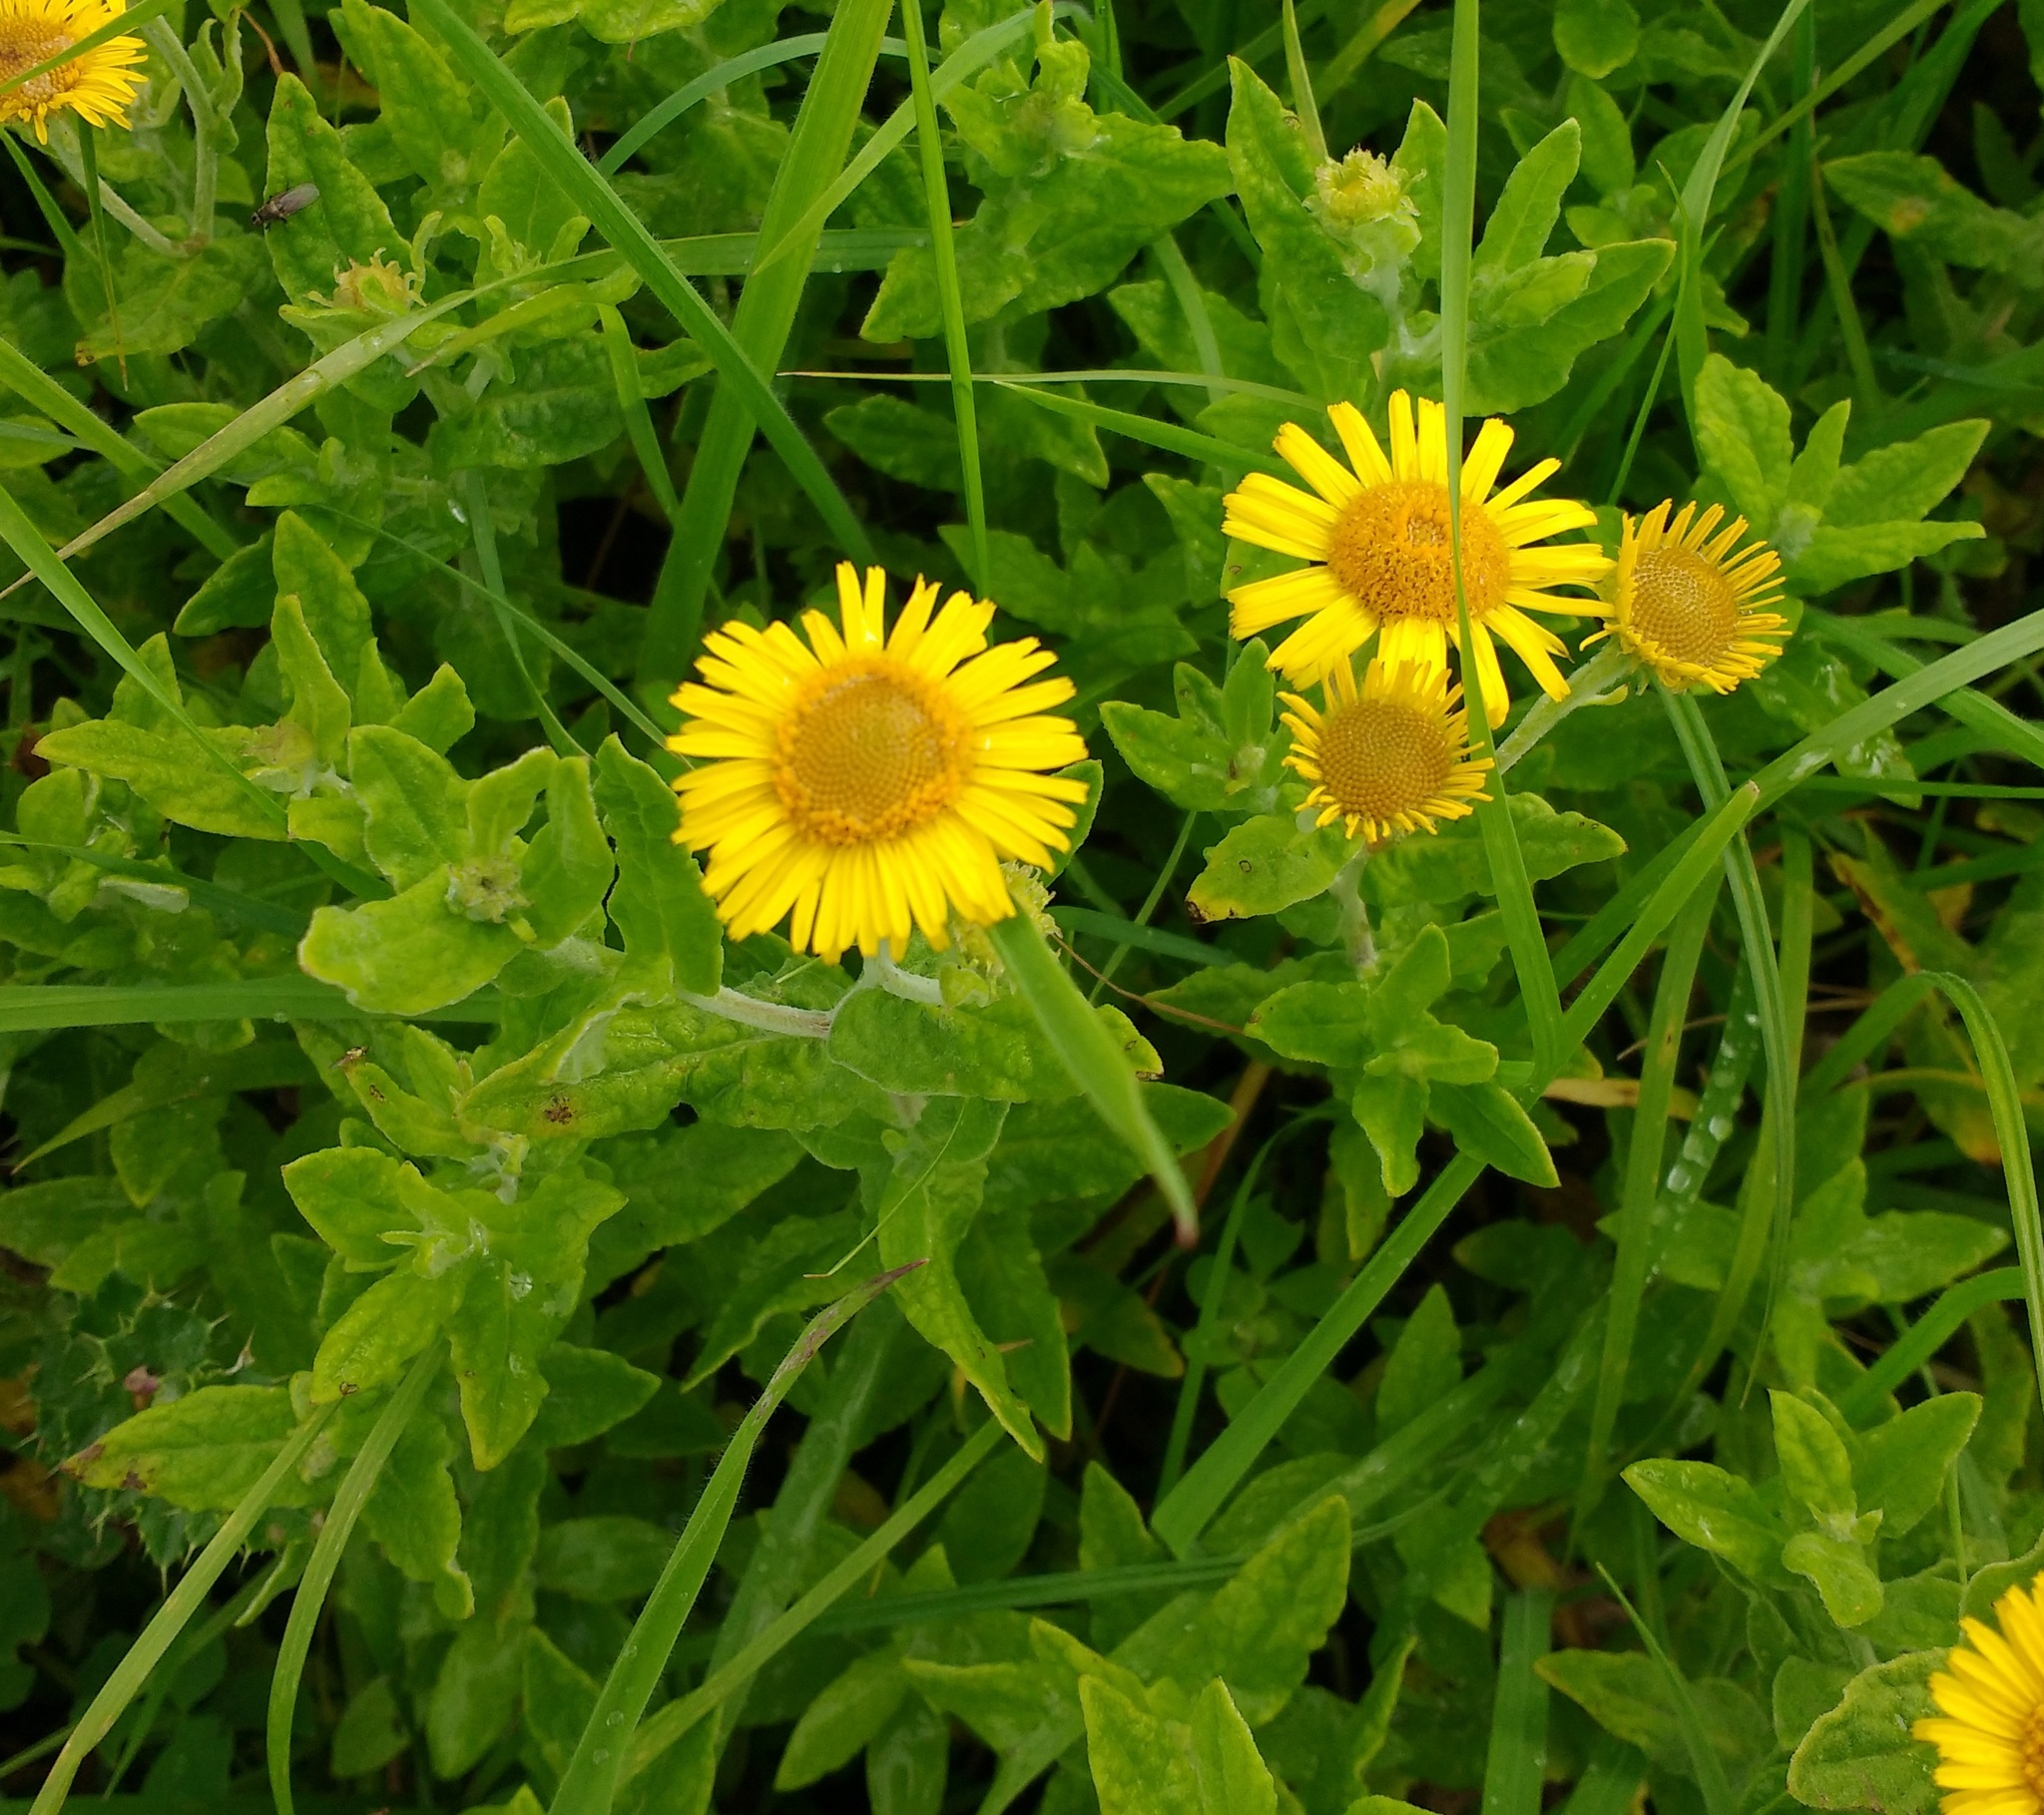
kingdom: Plantae
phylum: Tracheophyta
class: Magnoliopsida
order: Asterales
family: Asteraceae
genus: Pulicaria
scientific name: Pulicaria dysenterica
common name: Common fleabane
